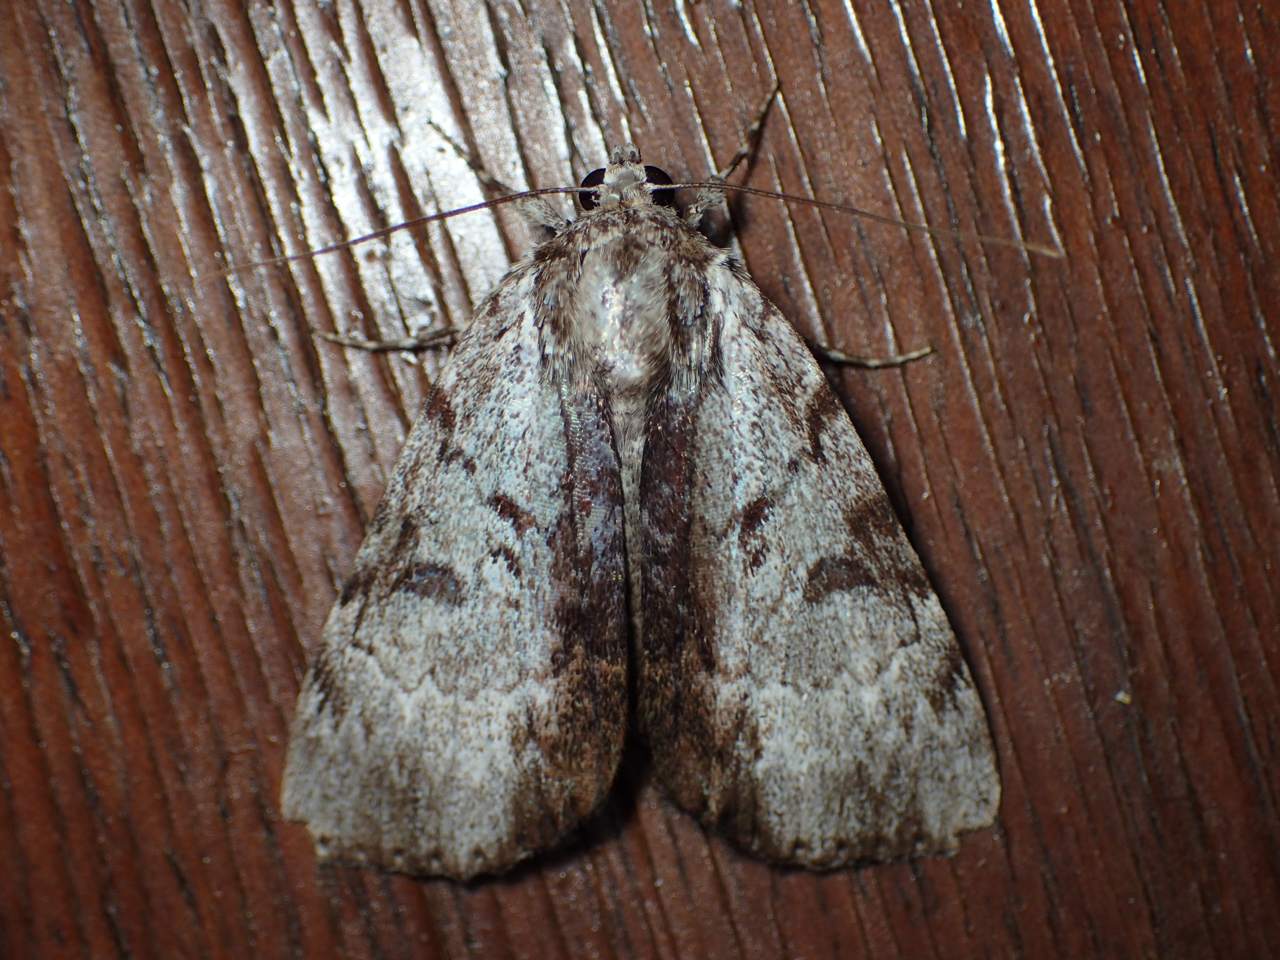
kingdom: Animalia
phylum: Arthropoda
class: Insecta
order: Lepidoptera
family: Erebidae
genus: Catocala
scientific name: Catocala andromedae
